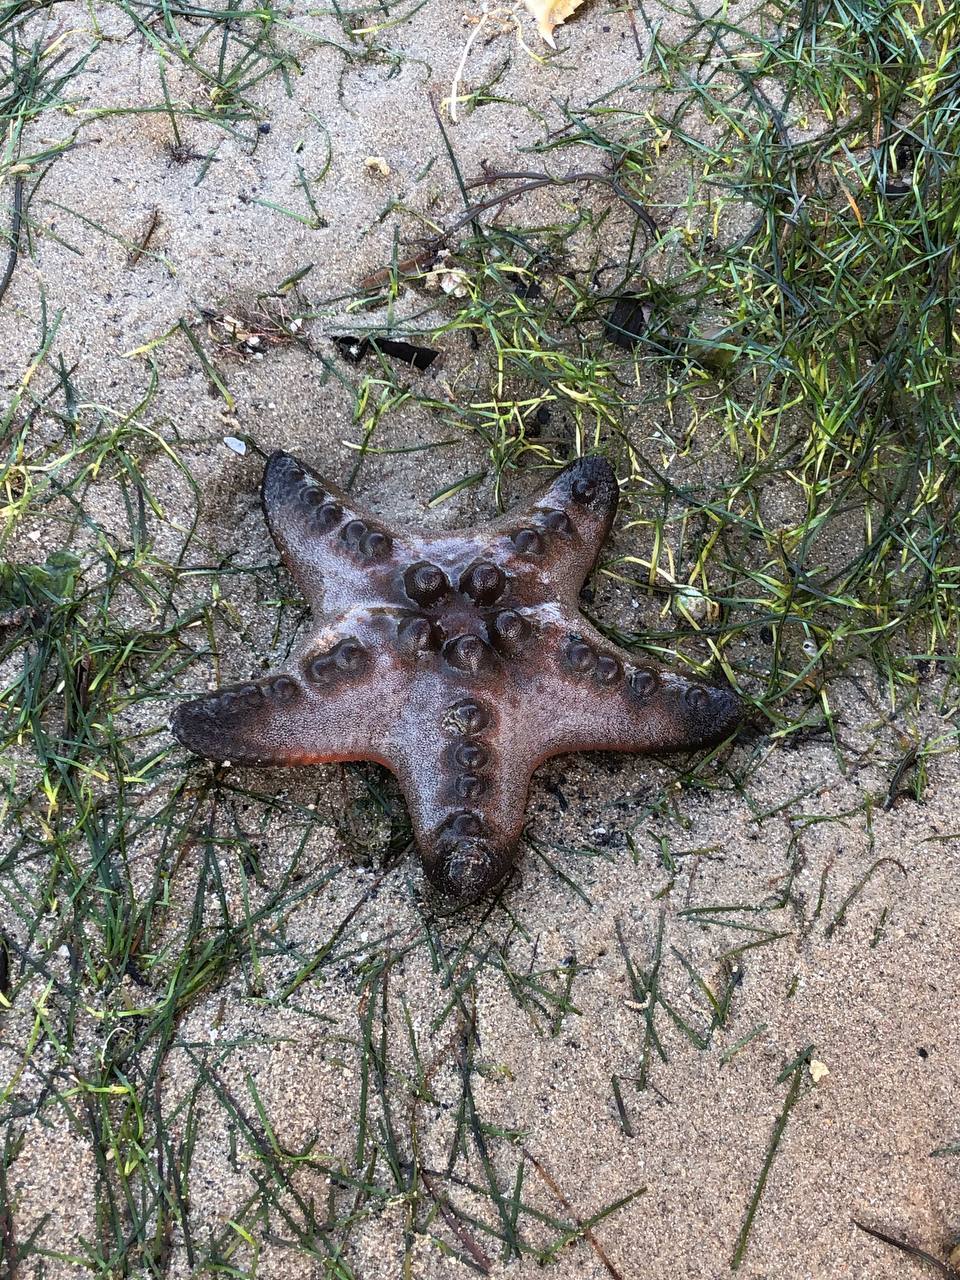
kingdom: Animalia
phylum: Echinodermata
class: Asteroidea
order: Valvatida
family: Oreasteridae
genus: Protoreaster
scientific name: Protoreaster nodosus
